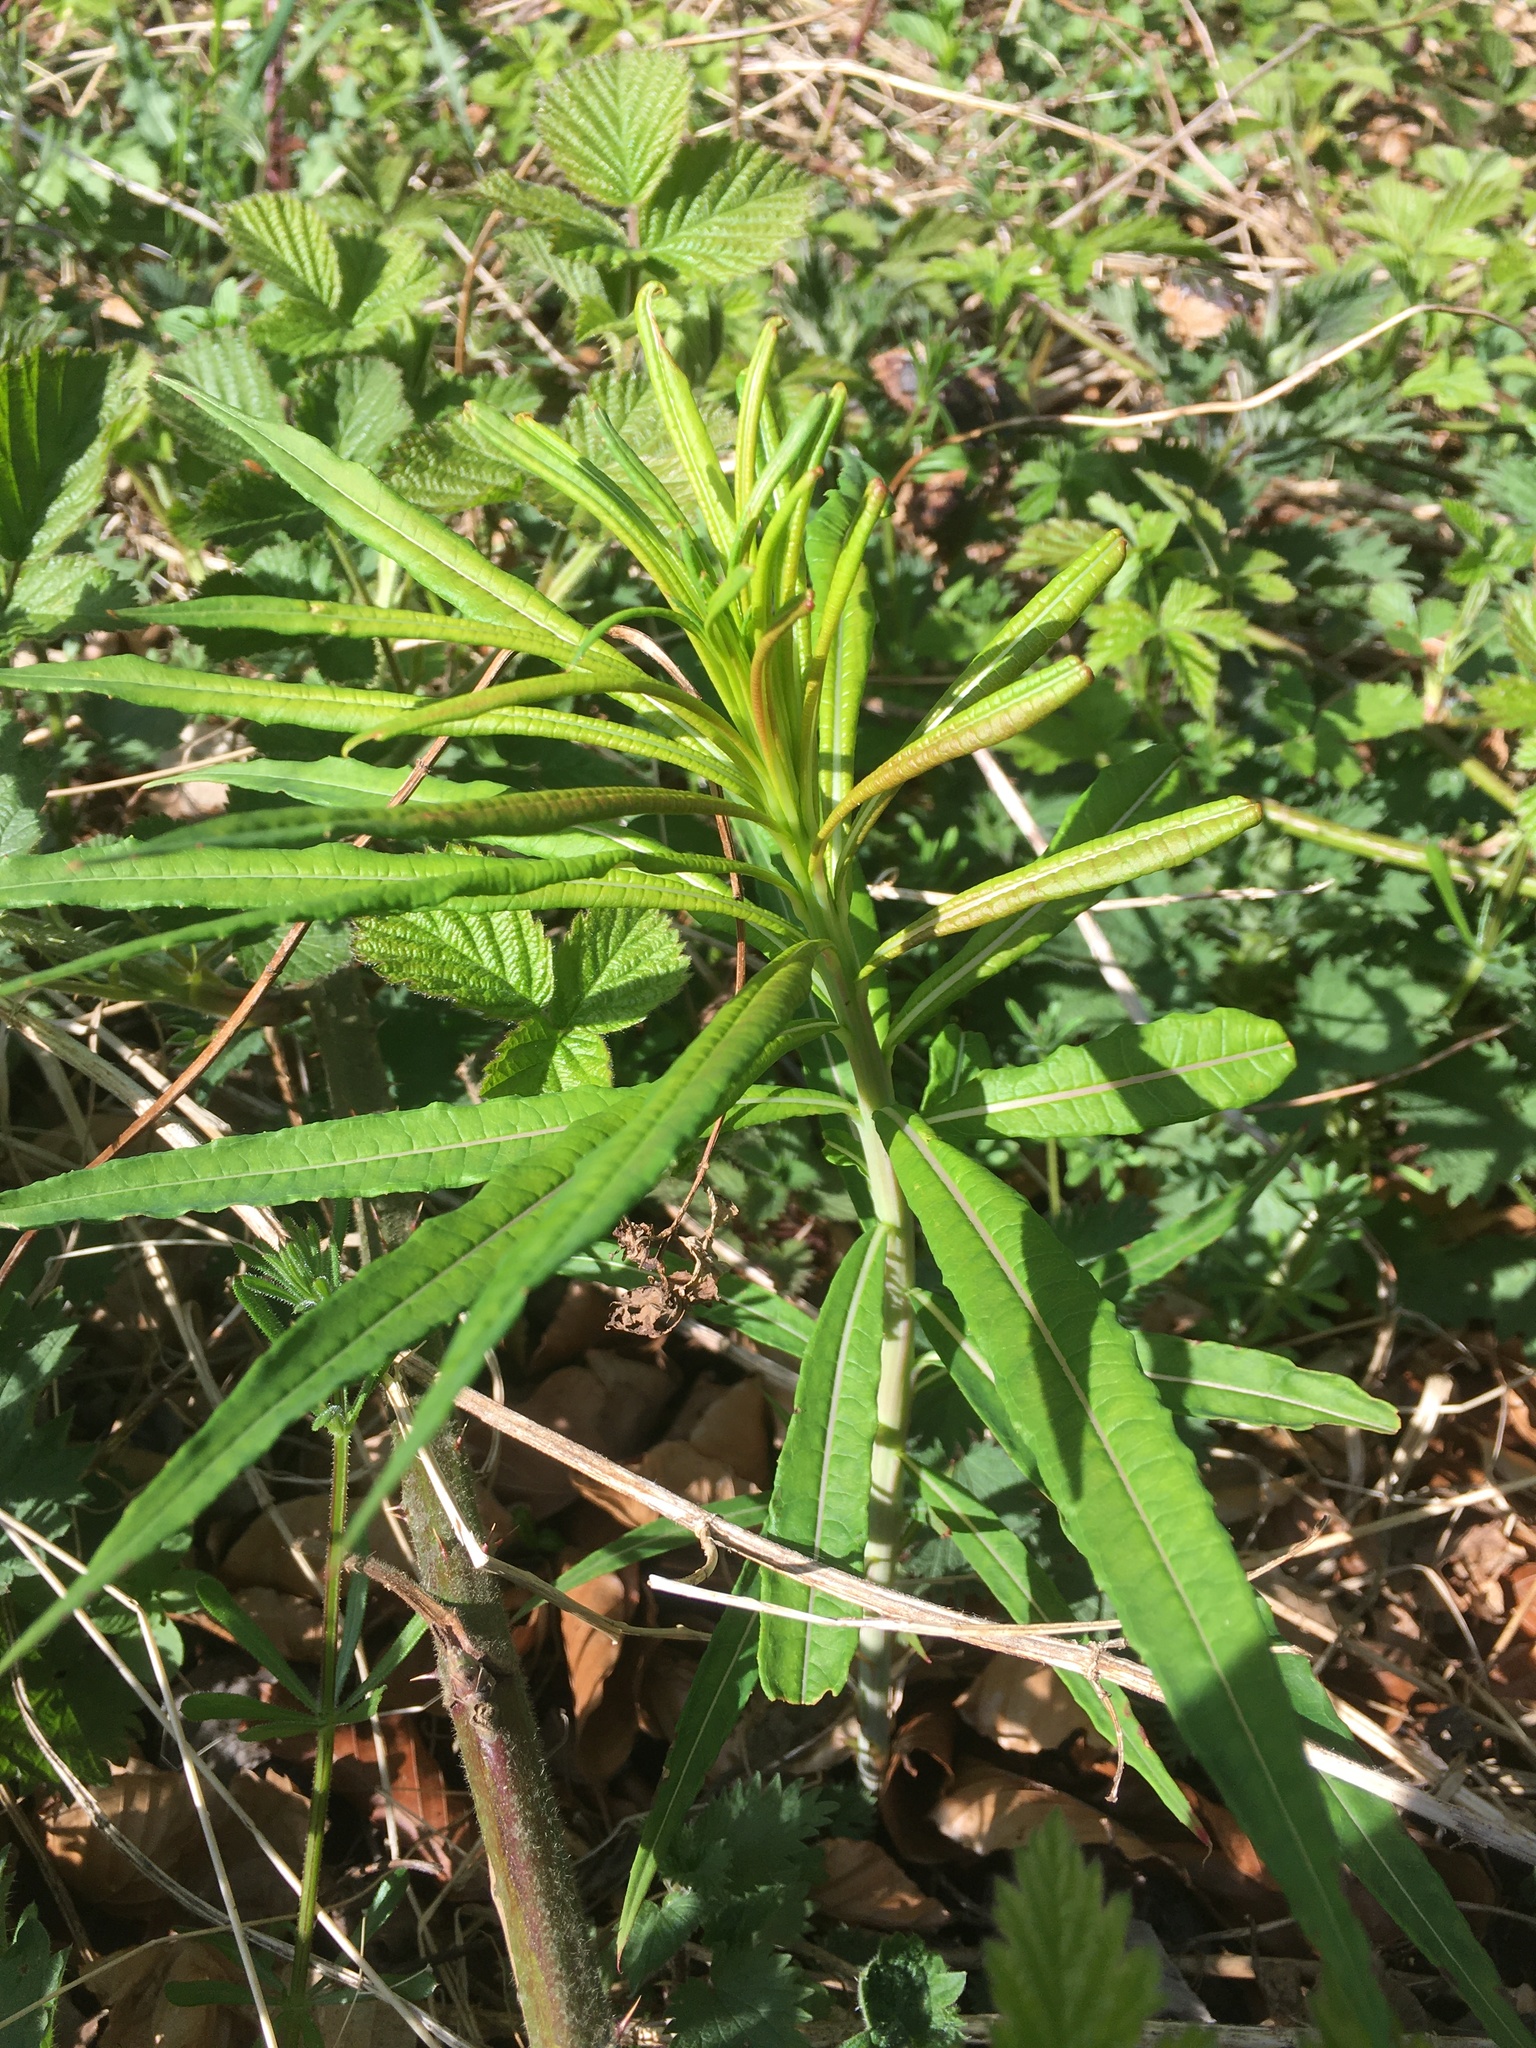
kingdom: Plantae
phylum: Tracheophyta
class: Magnoliopsida
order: Myrtales
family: Onagraceae
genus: Chamaenerion
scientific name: Chamaenerion angustifolium
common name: Fireweed
